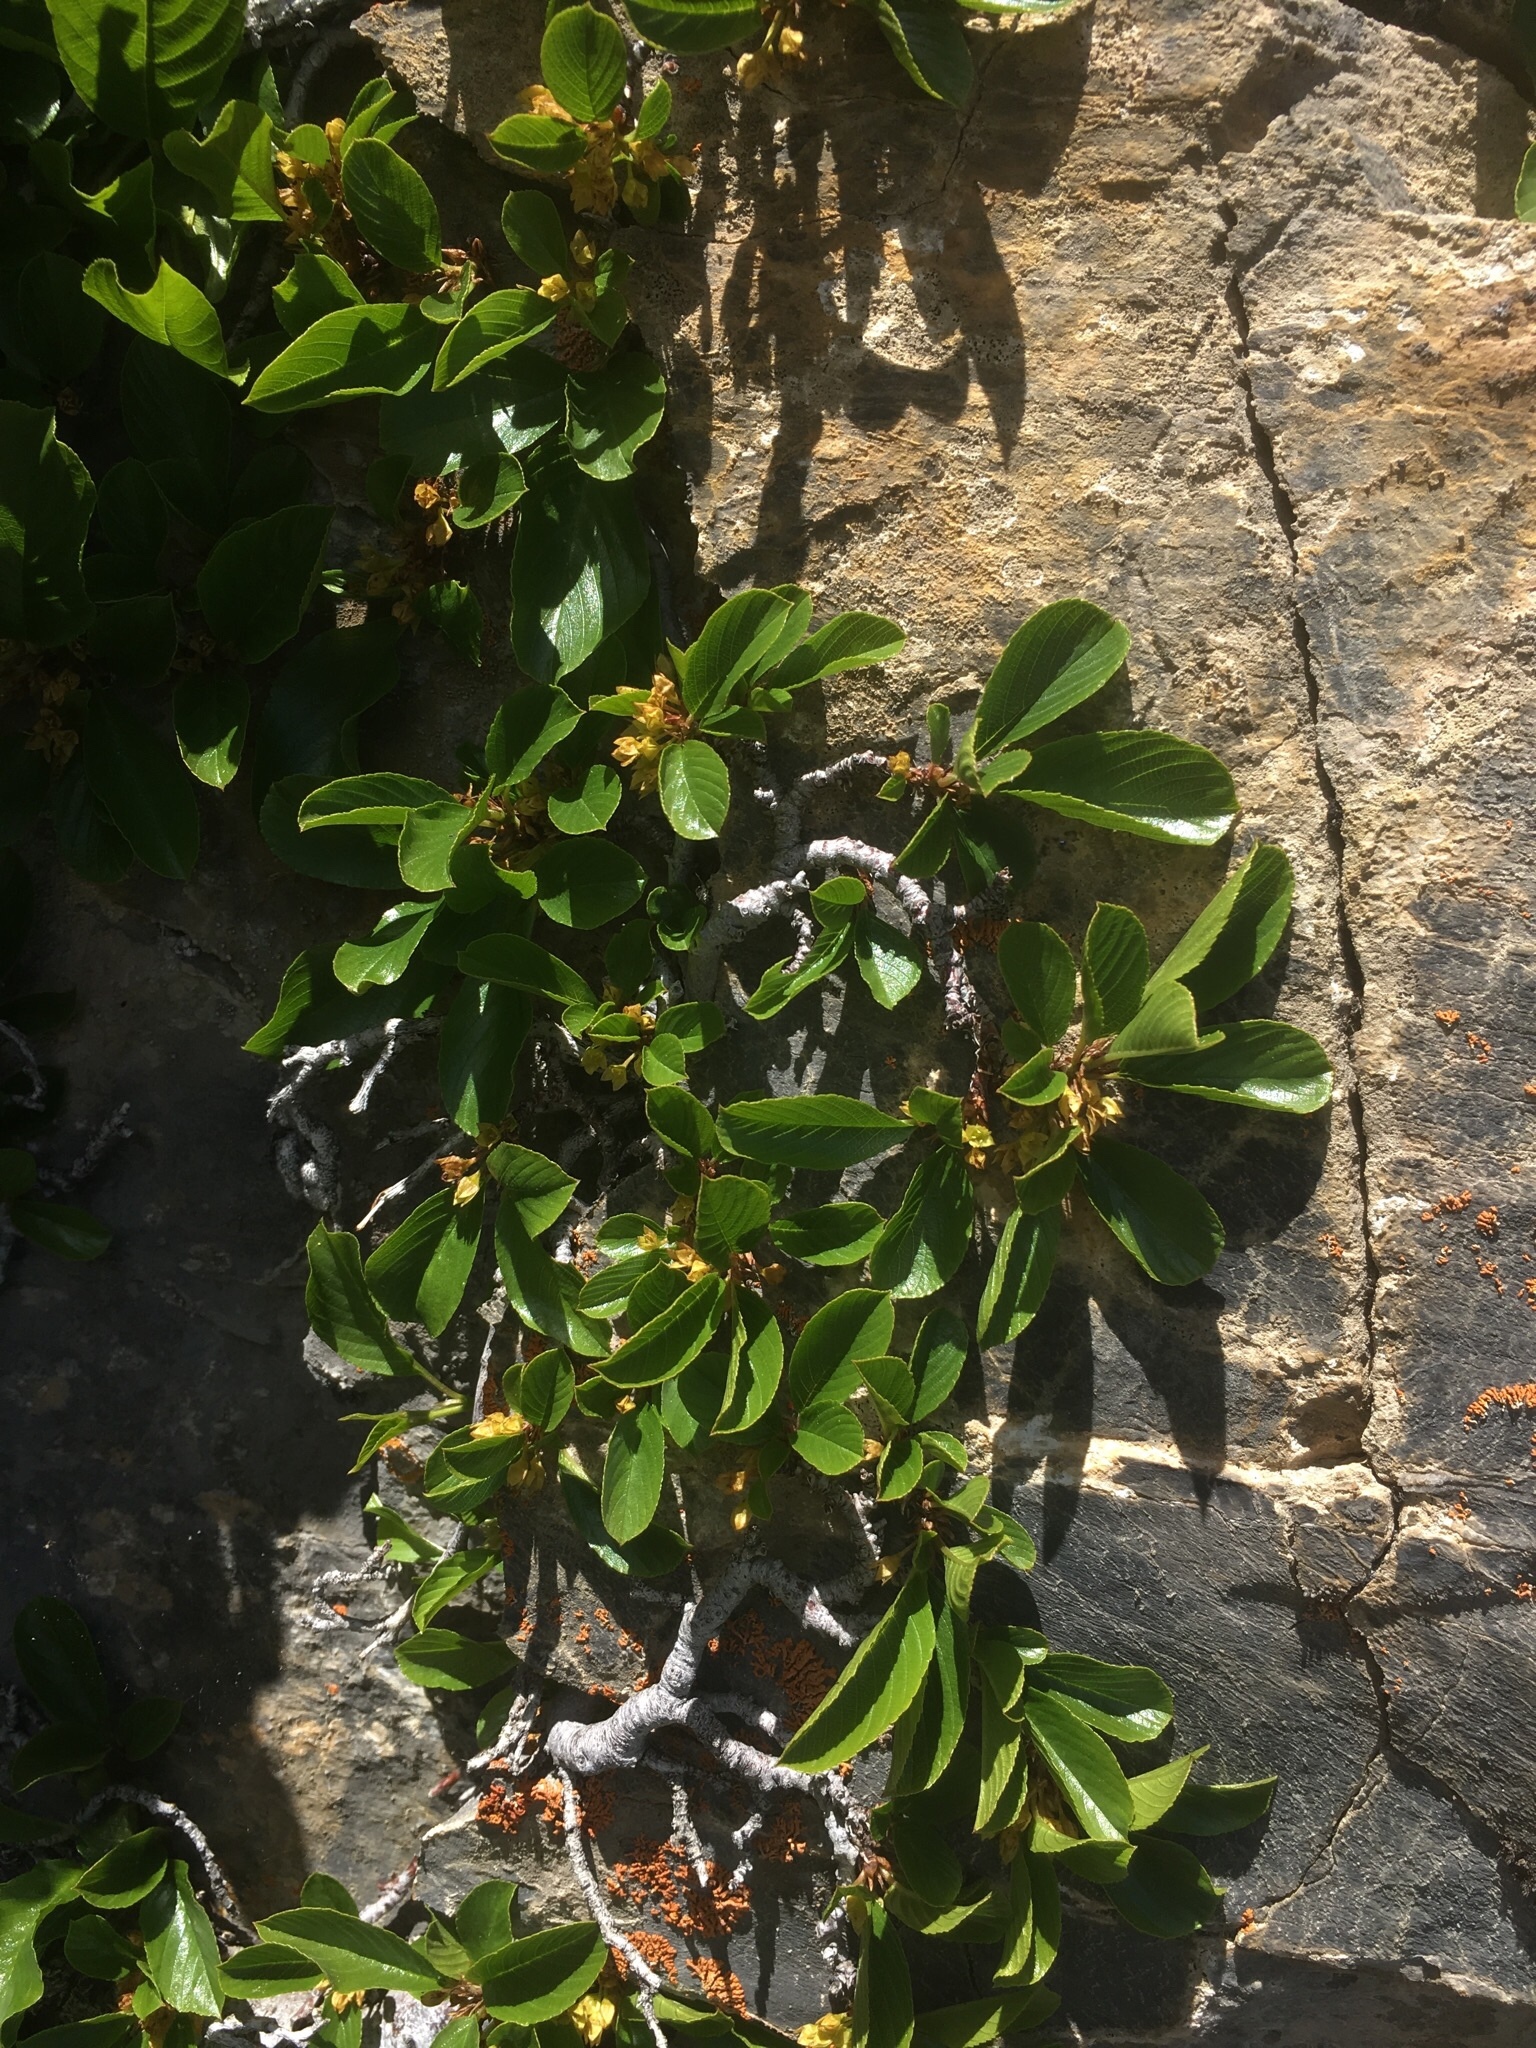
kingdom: Plantae
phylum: Tracheophyta
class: Magnoliopsida
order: Rosales
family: Rhamnaceae
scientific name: Rhamnaceae
